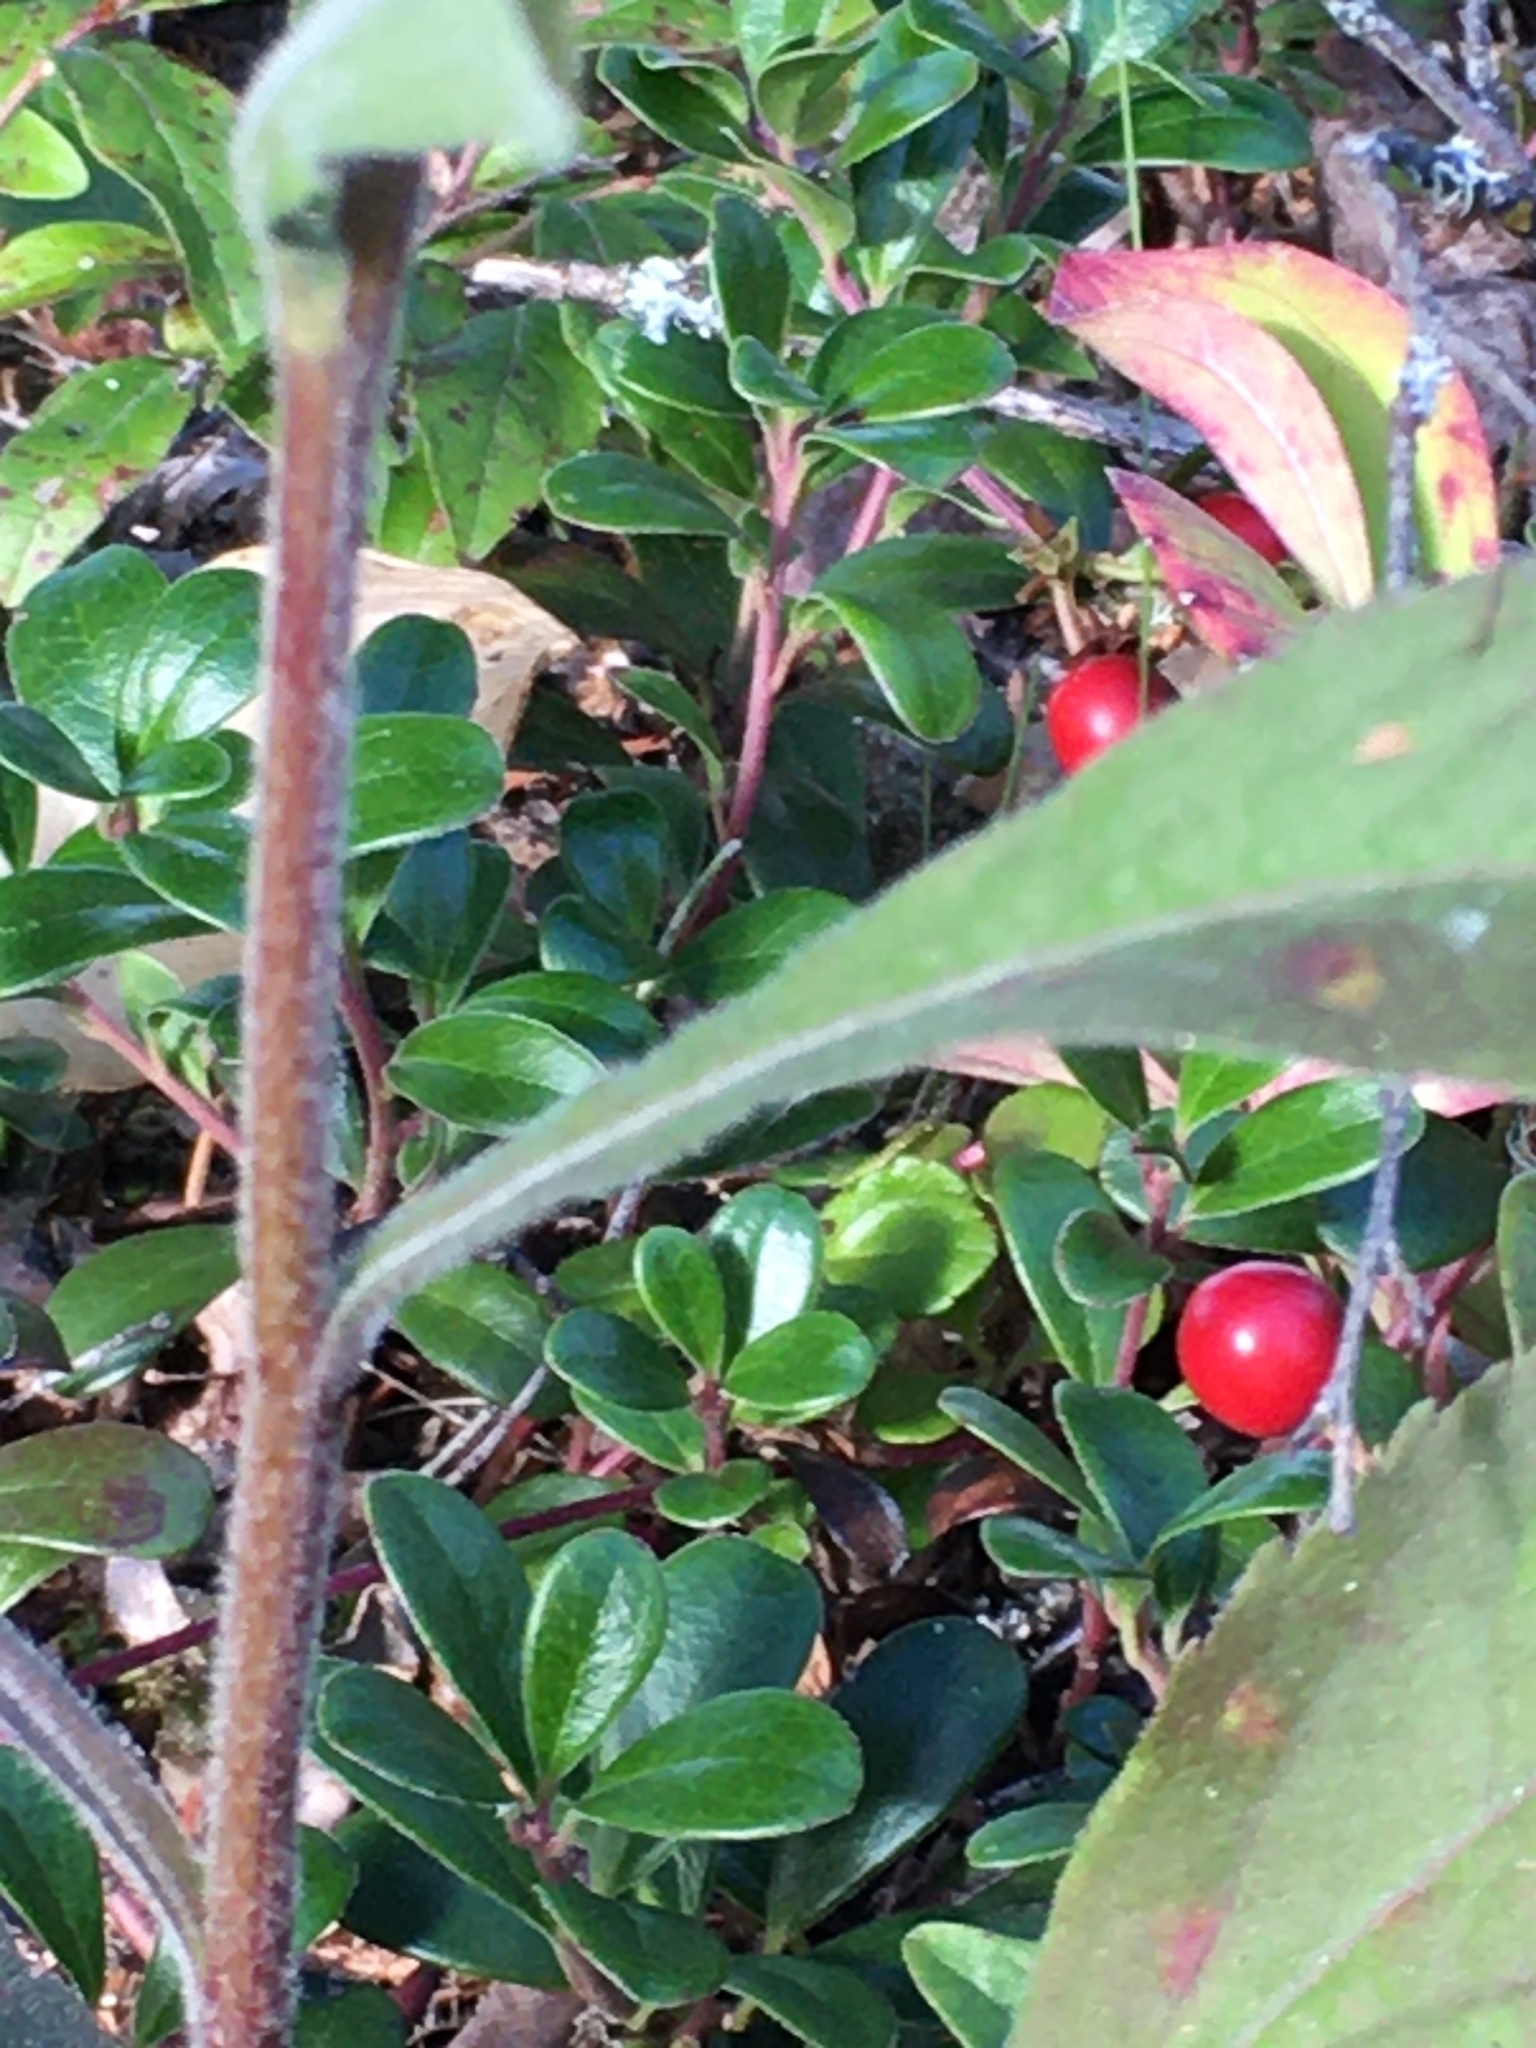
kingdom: Plantae
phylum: Tracheophyta
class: Magnoliopsida
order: Asterales
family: Asteraceae
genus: Solidago
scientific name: Solidago nemoralis
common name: Grey goldenrod
